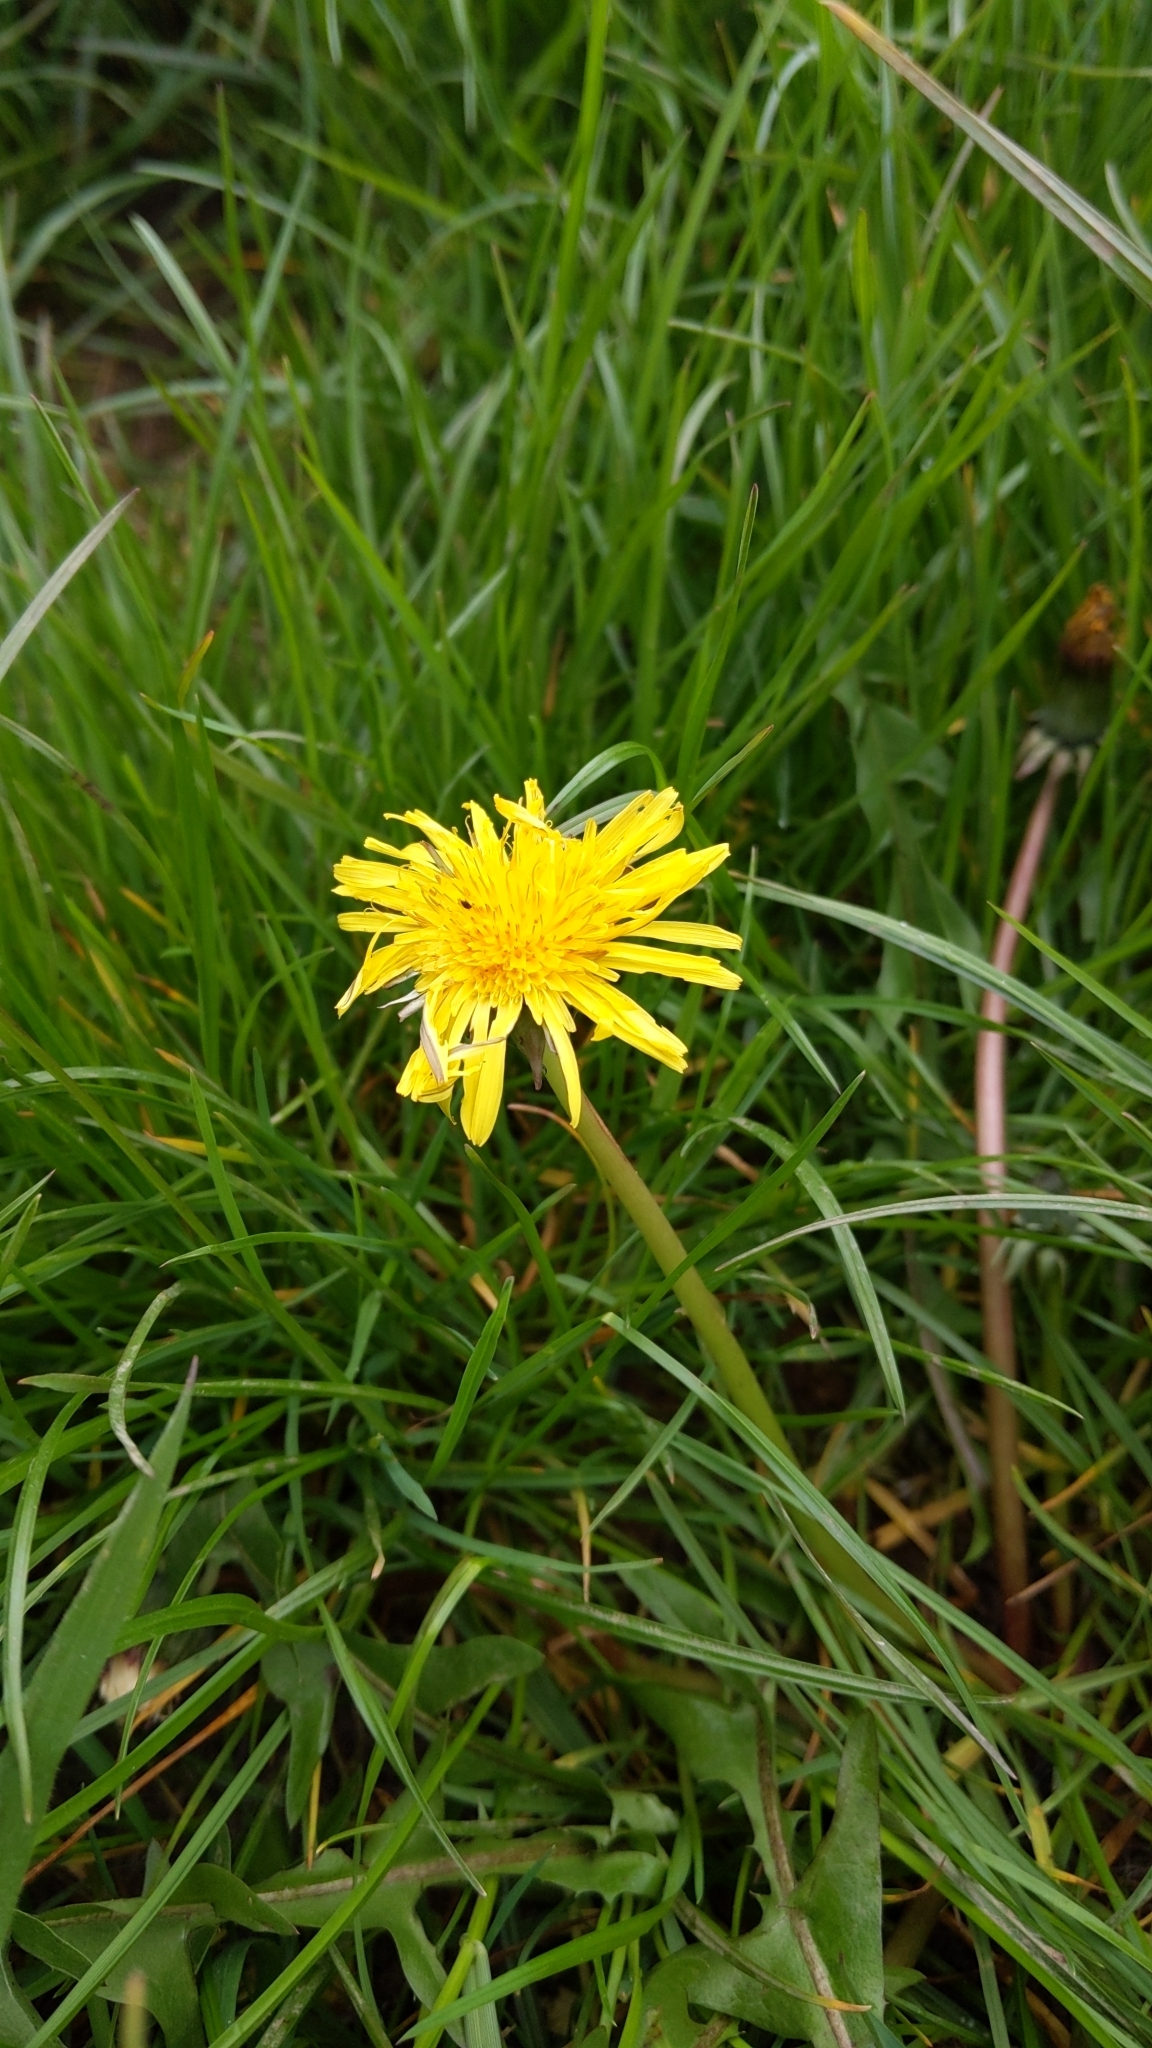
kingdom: Plantae
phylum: Tracheophyta
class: Magnoliopsida
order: Asterales
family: Asteraceae
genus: Taraxacum
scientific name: Taraxacum officinale
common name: Common dandelion
